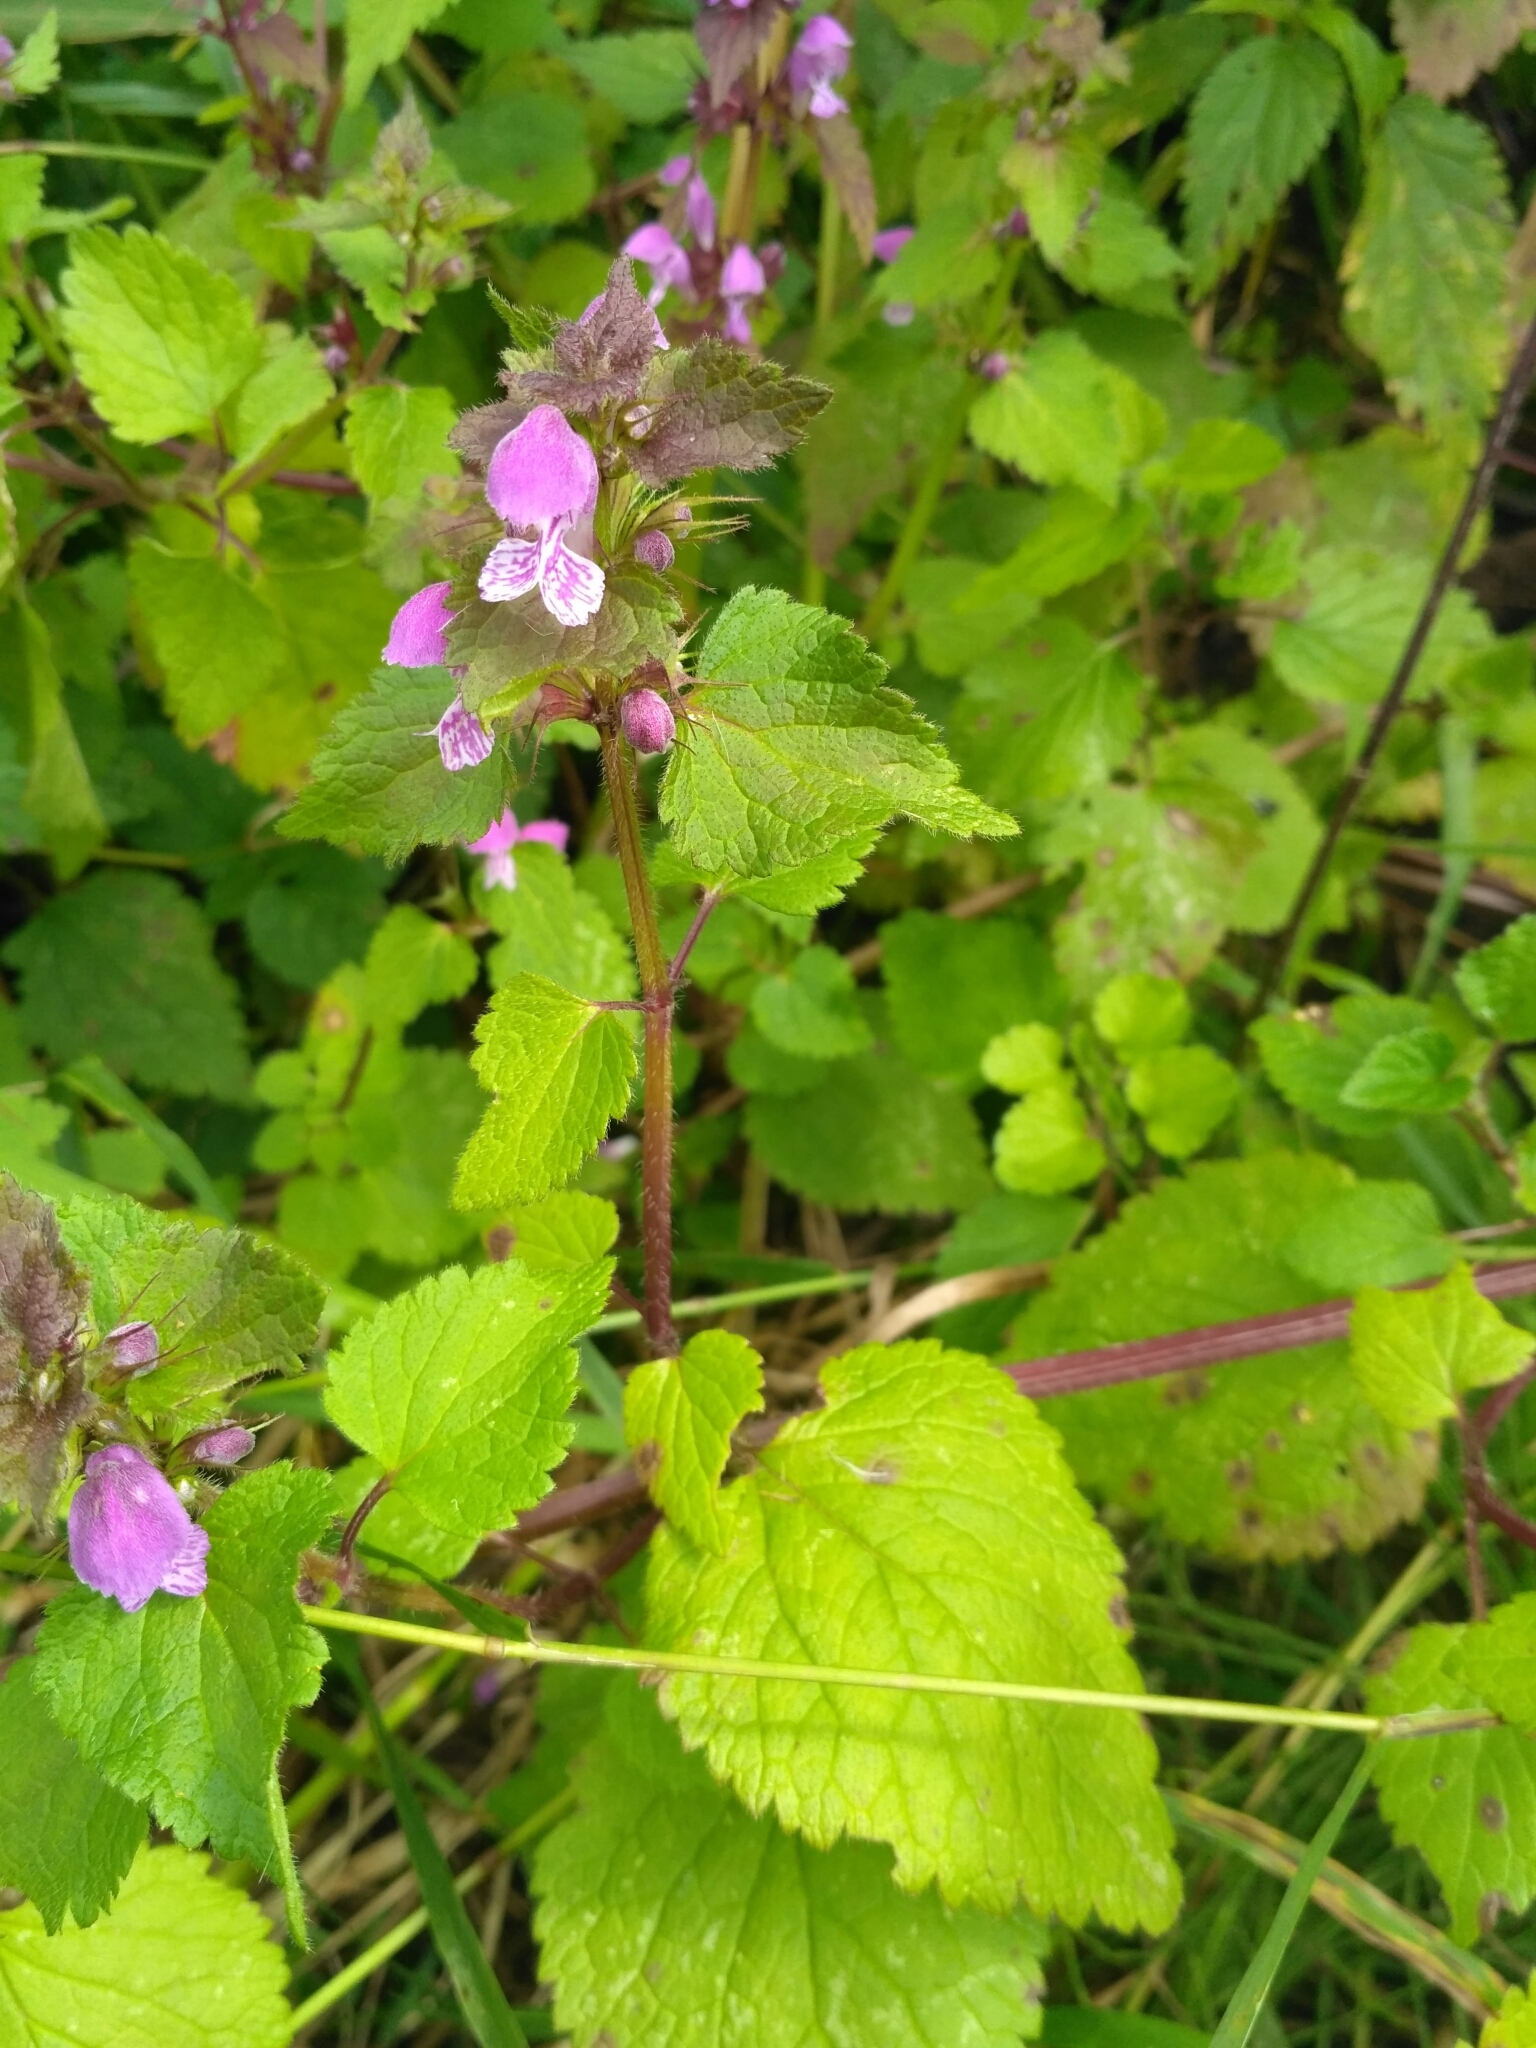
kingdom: Plantae
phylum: Tracheophyta
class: Magnoliopsida
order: Lamiales
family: Lamiaceae
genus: Lamium
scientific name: Lamium maculatum
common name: Spotted dead-nettle
